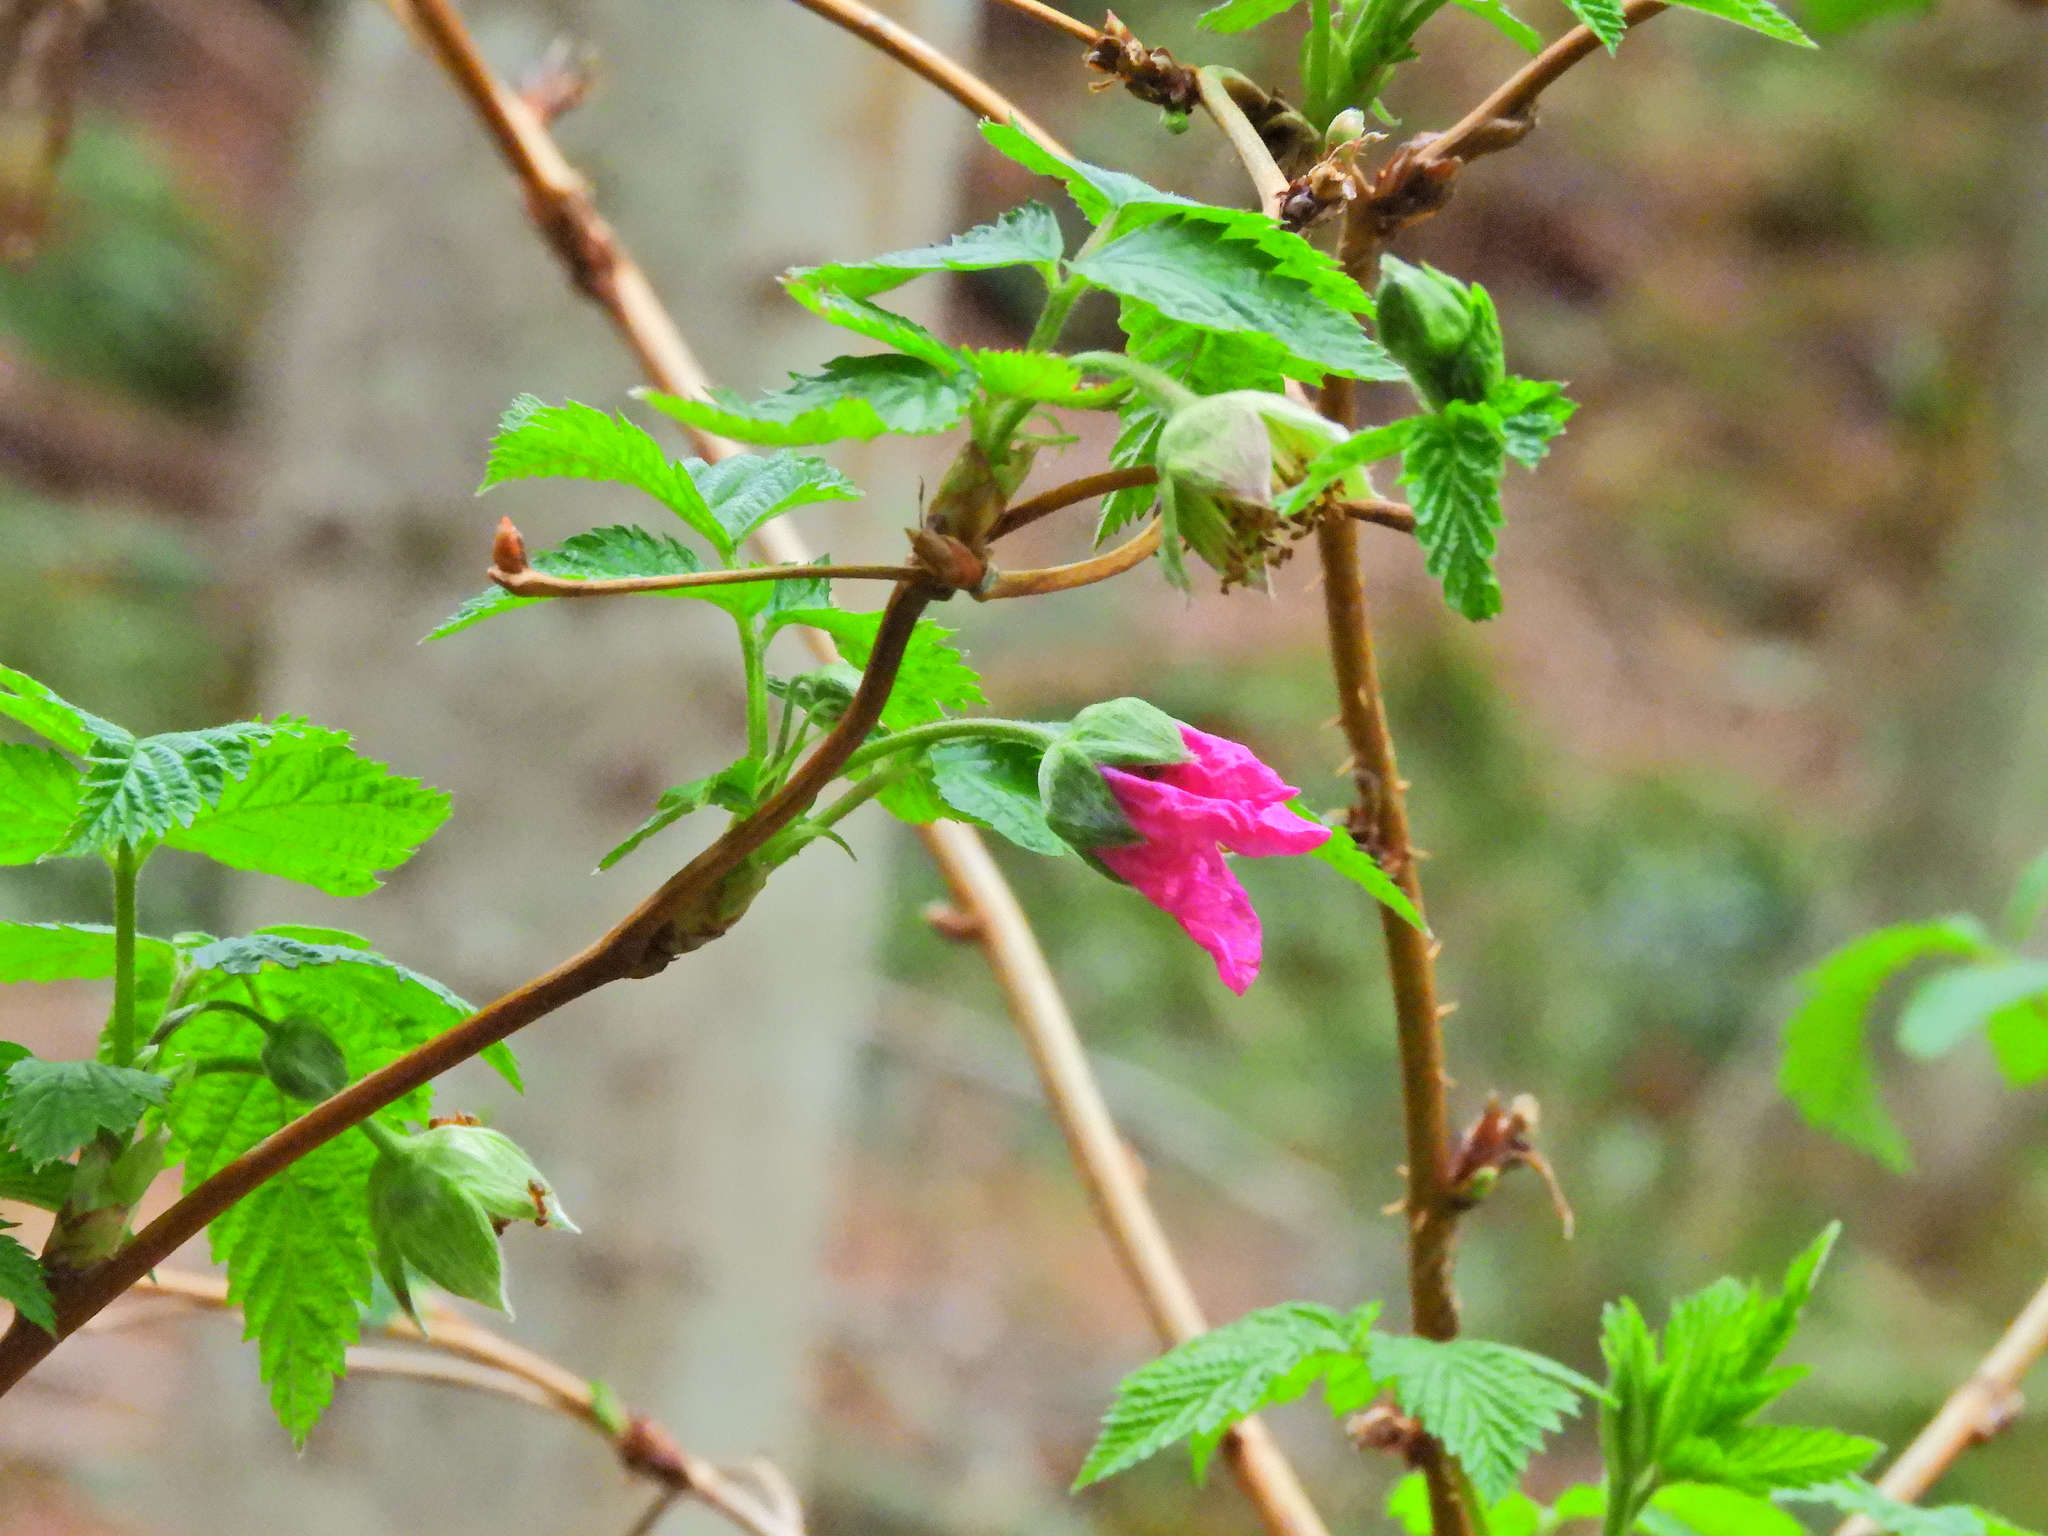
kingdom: Plantae
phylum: Tracheophyta
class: Magnoliopsida
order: Rosales
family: Rosaceae
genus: Rubus
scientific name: Rubus spectabilis
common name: Salmonberry
